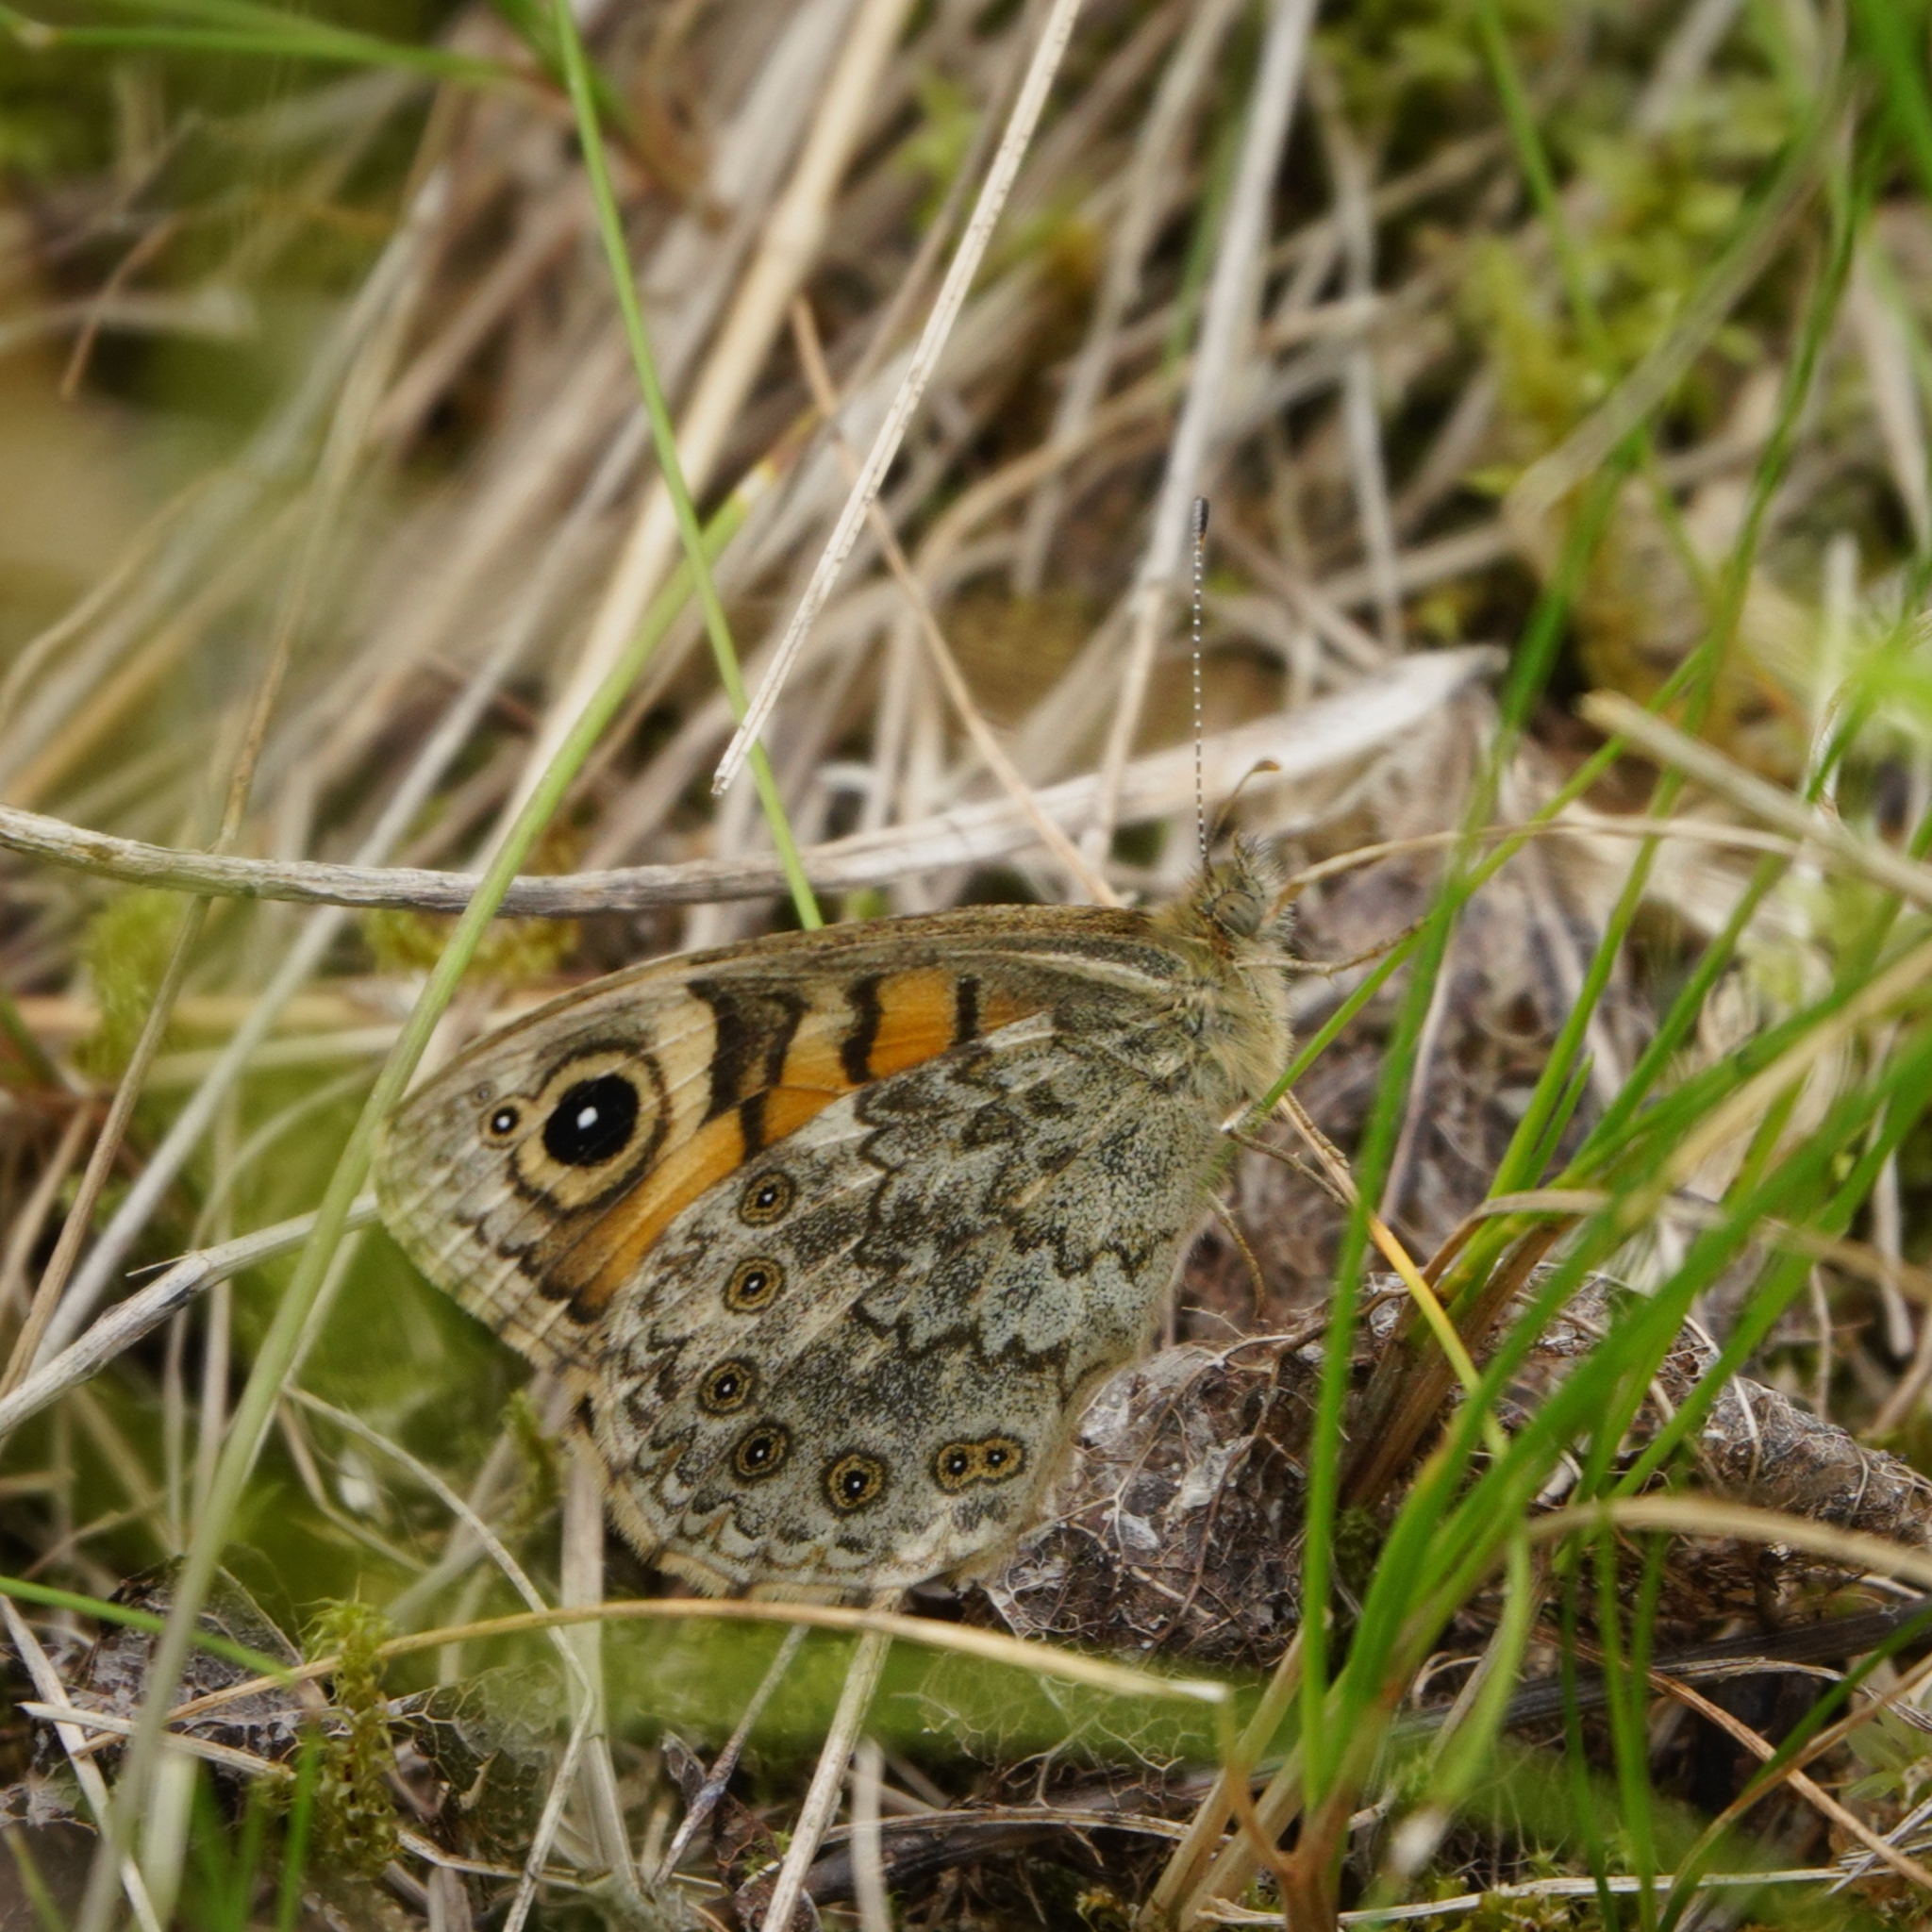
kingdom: Animalia
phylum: Arthropoda
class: Insecta
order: Lepidoptera
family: Nymphalidae
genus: Pararge
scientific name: Pararge Lasiommata megera
